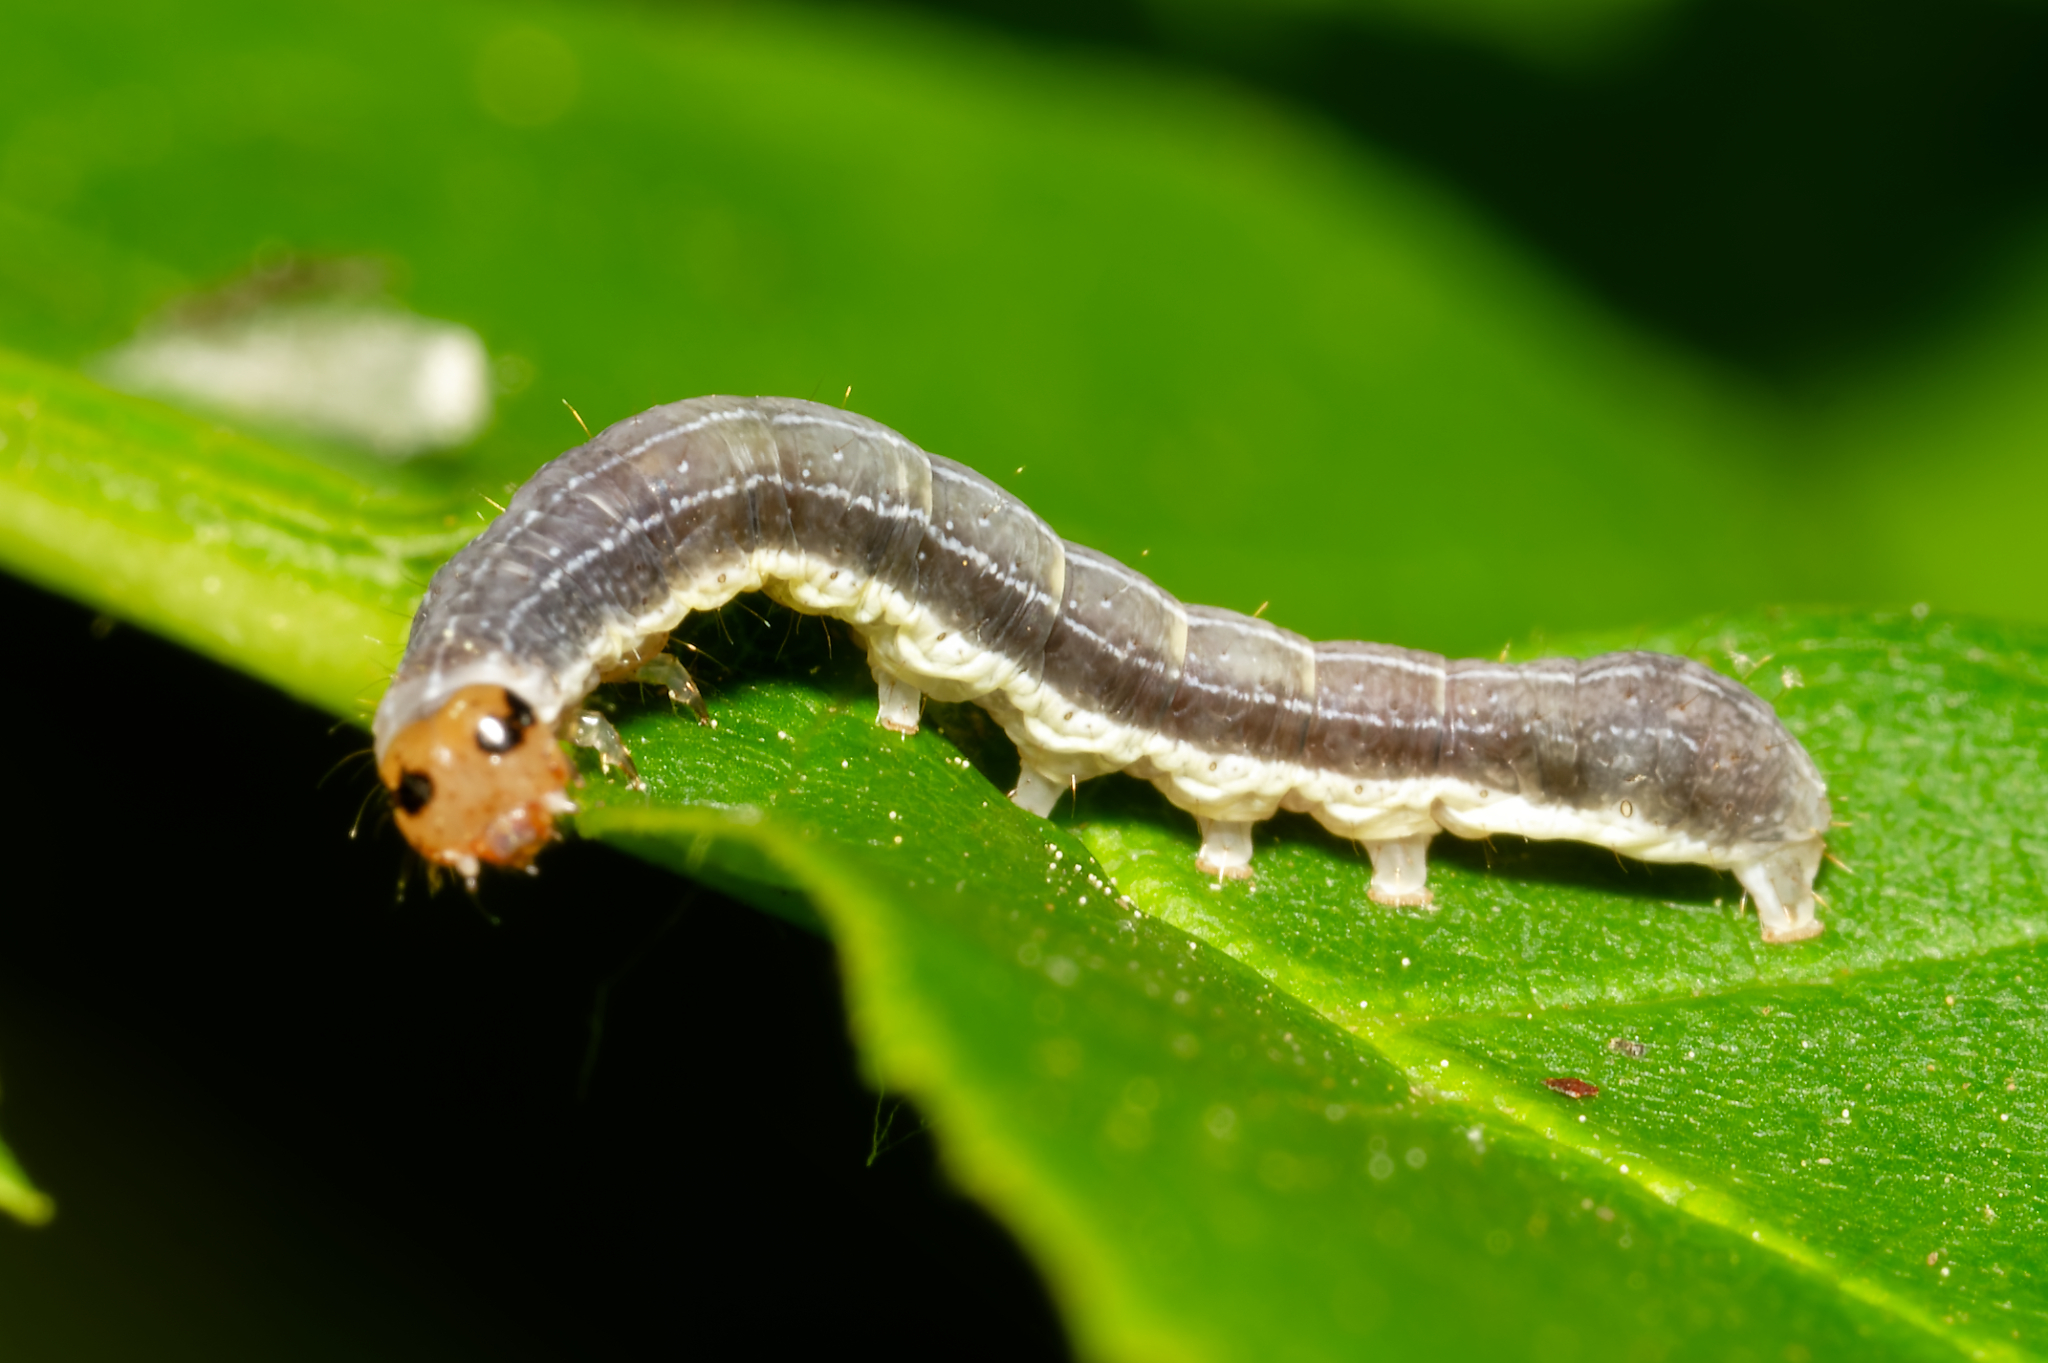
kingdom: Animalia
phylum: Arthropoda
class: Insecta
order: Lepidoptera
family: Noctuidae
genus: Crocigrapha
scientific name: Crocigrapha normani
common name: Norman's quaker
